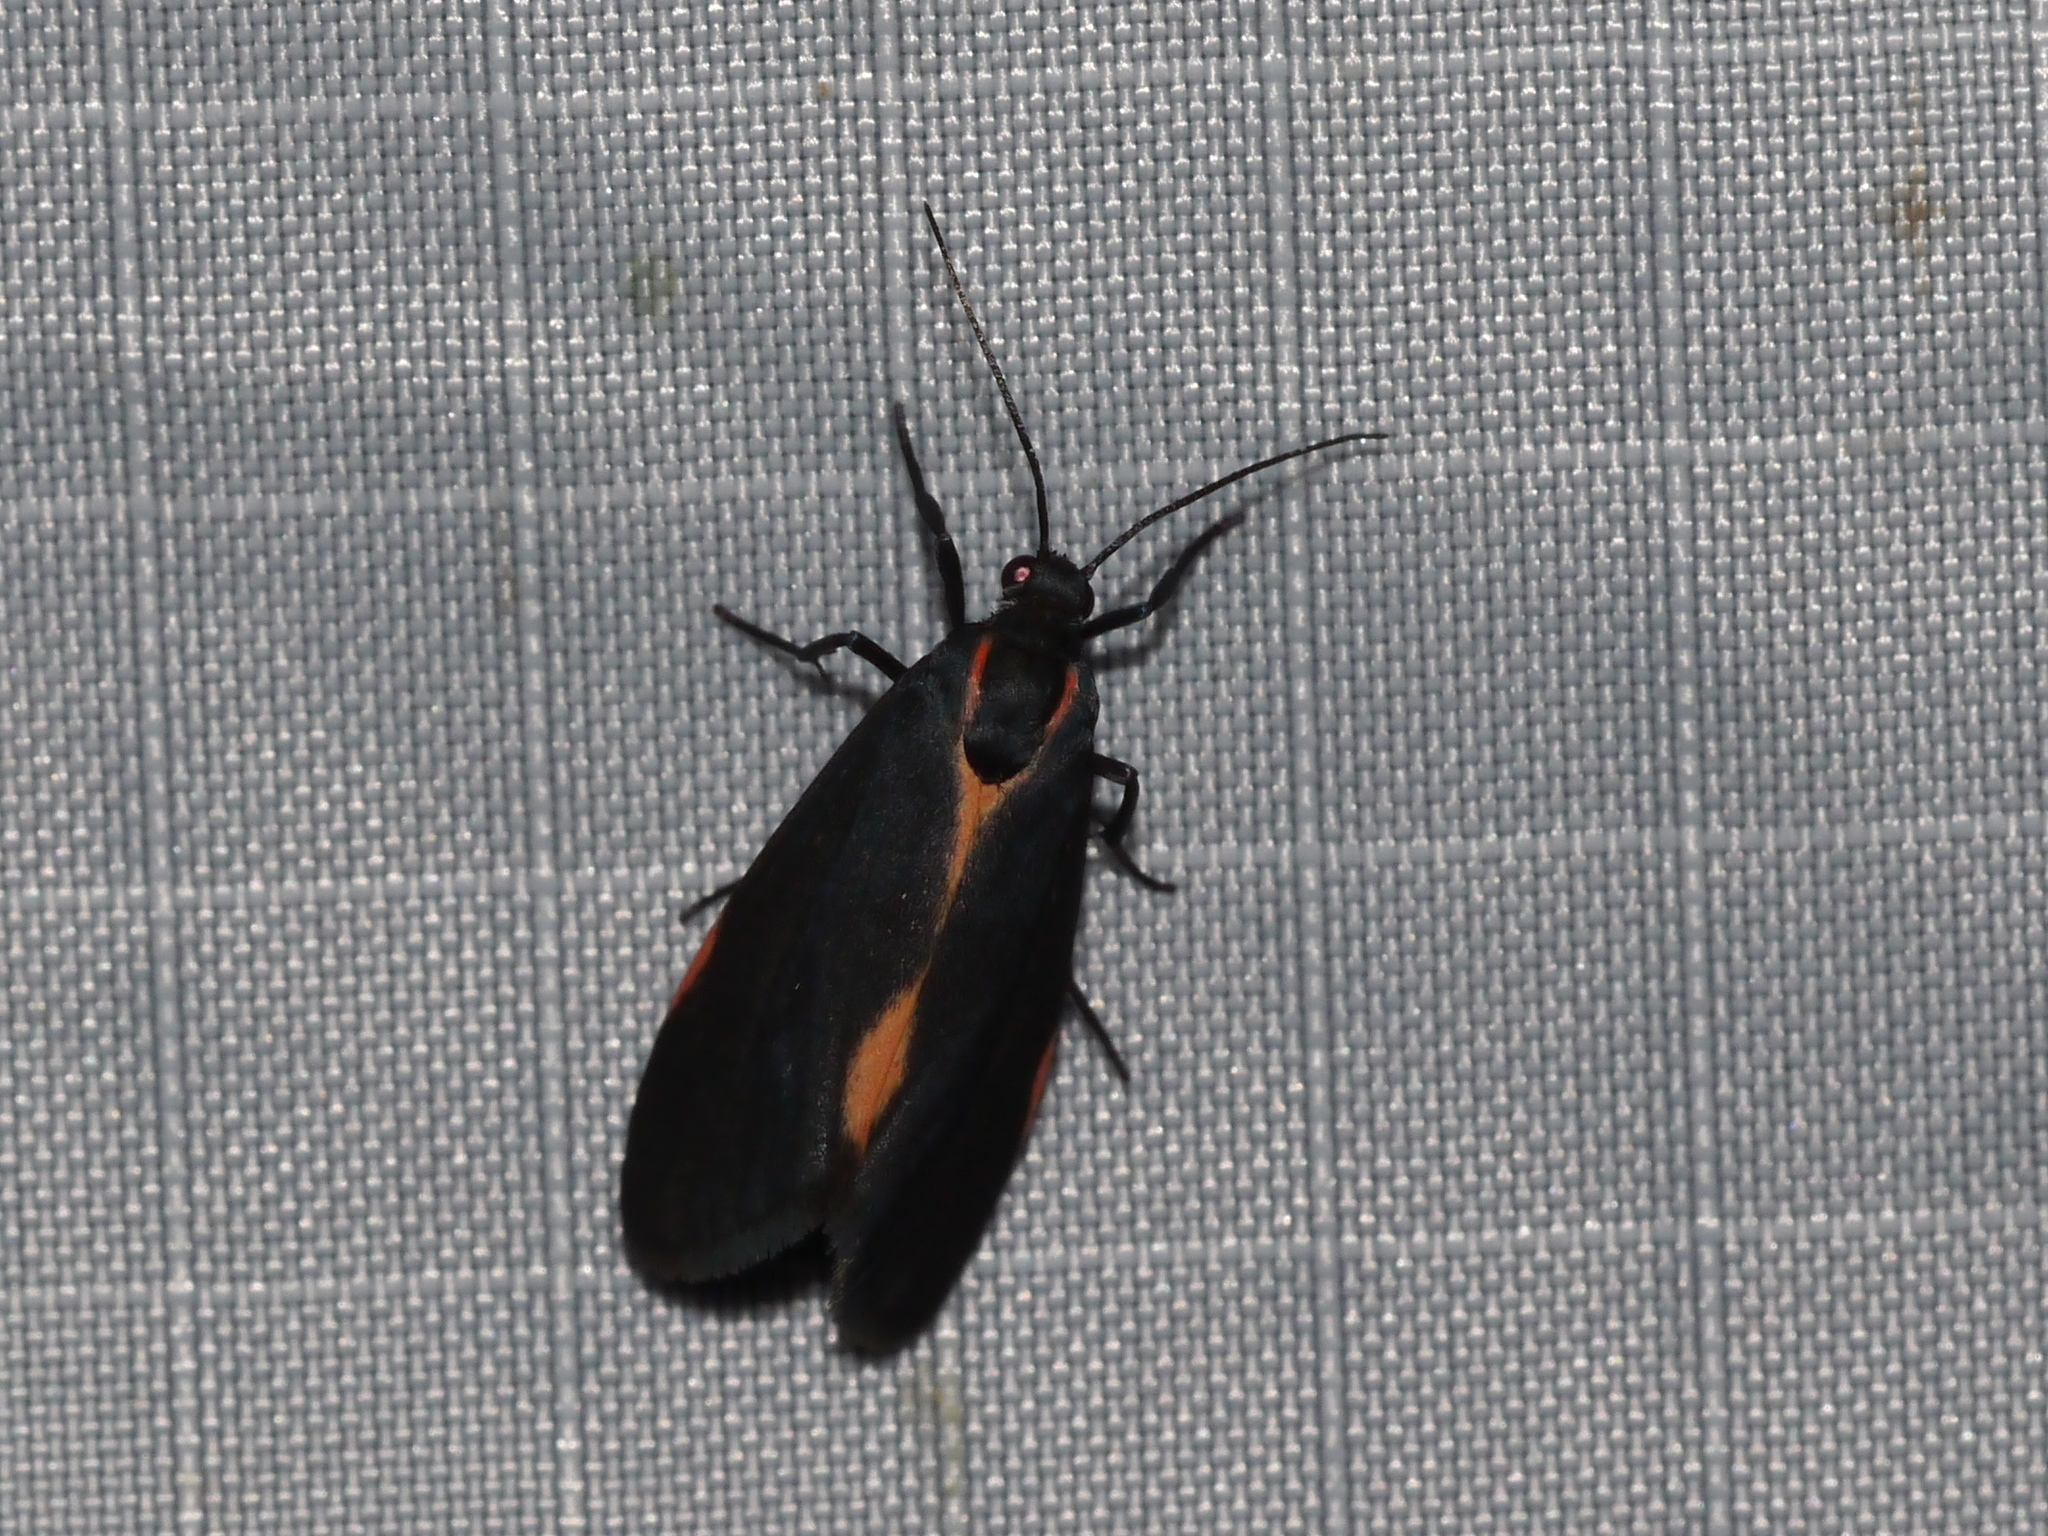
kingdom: Animalia
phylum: Arthropoda
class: Insecta
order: Lepidoptera
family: Erebidae
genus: Cisthene
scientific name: Cisthene juanita
